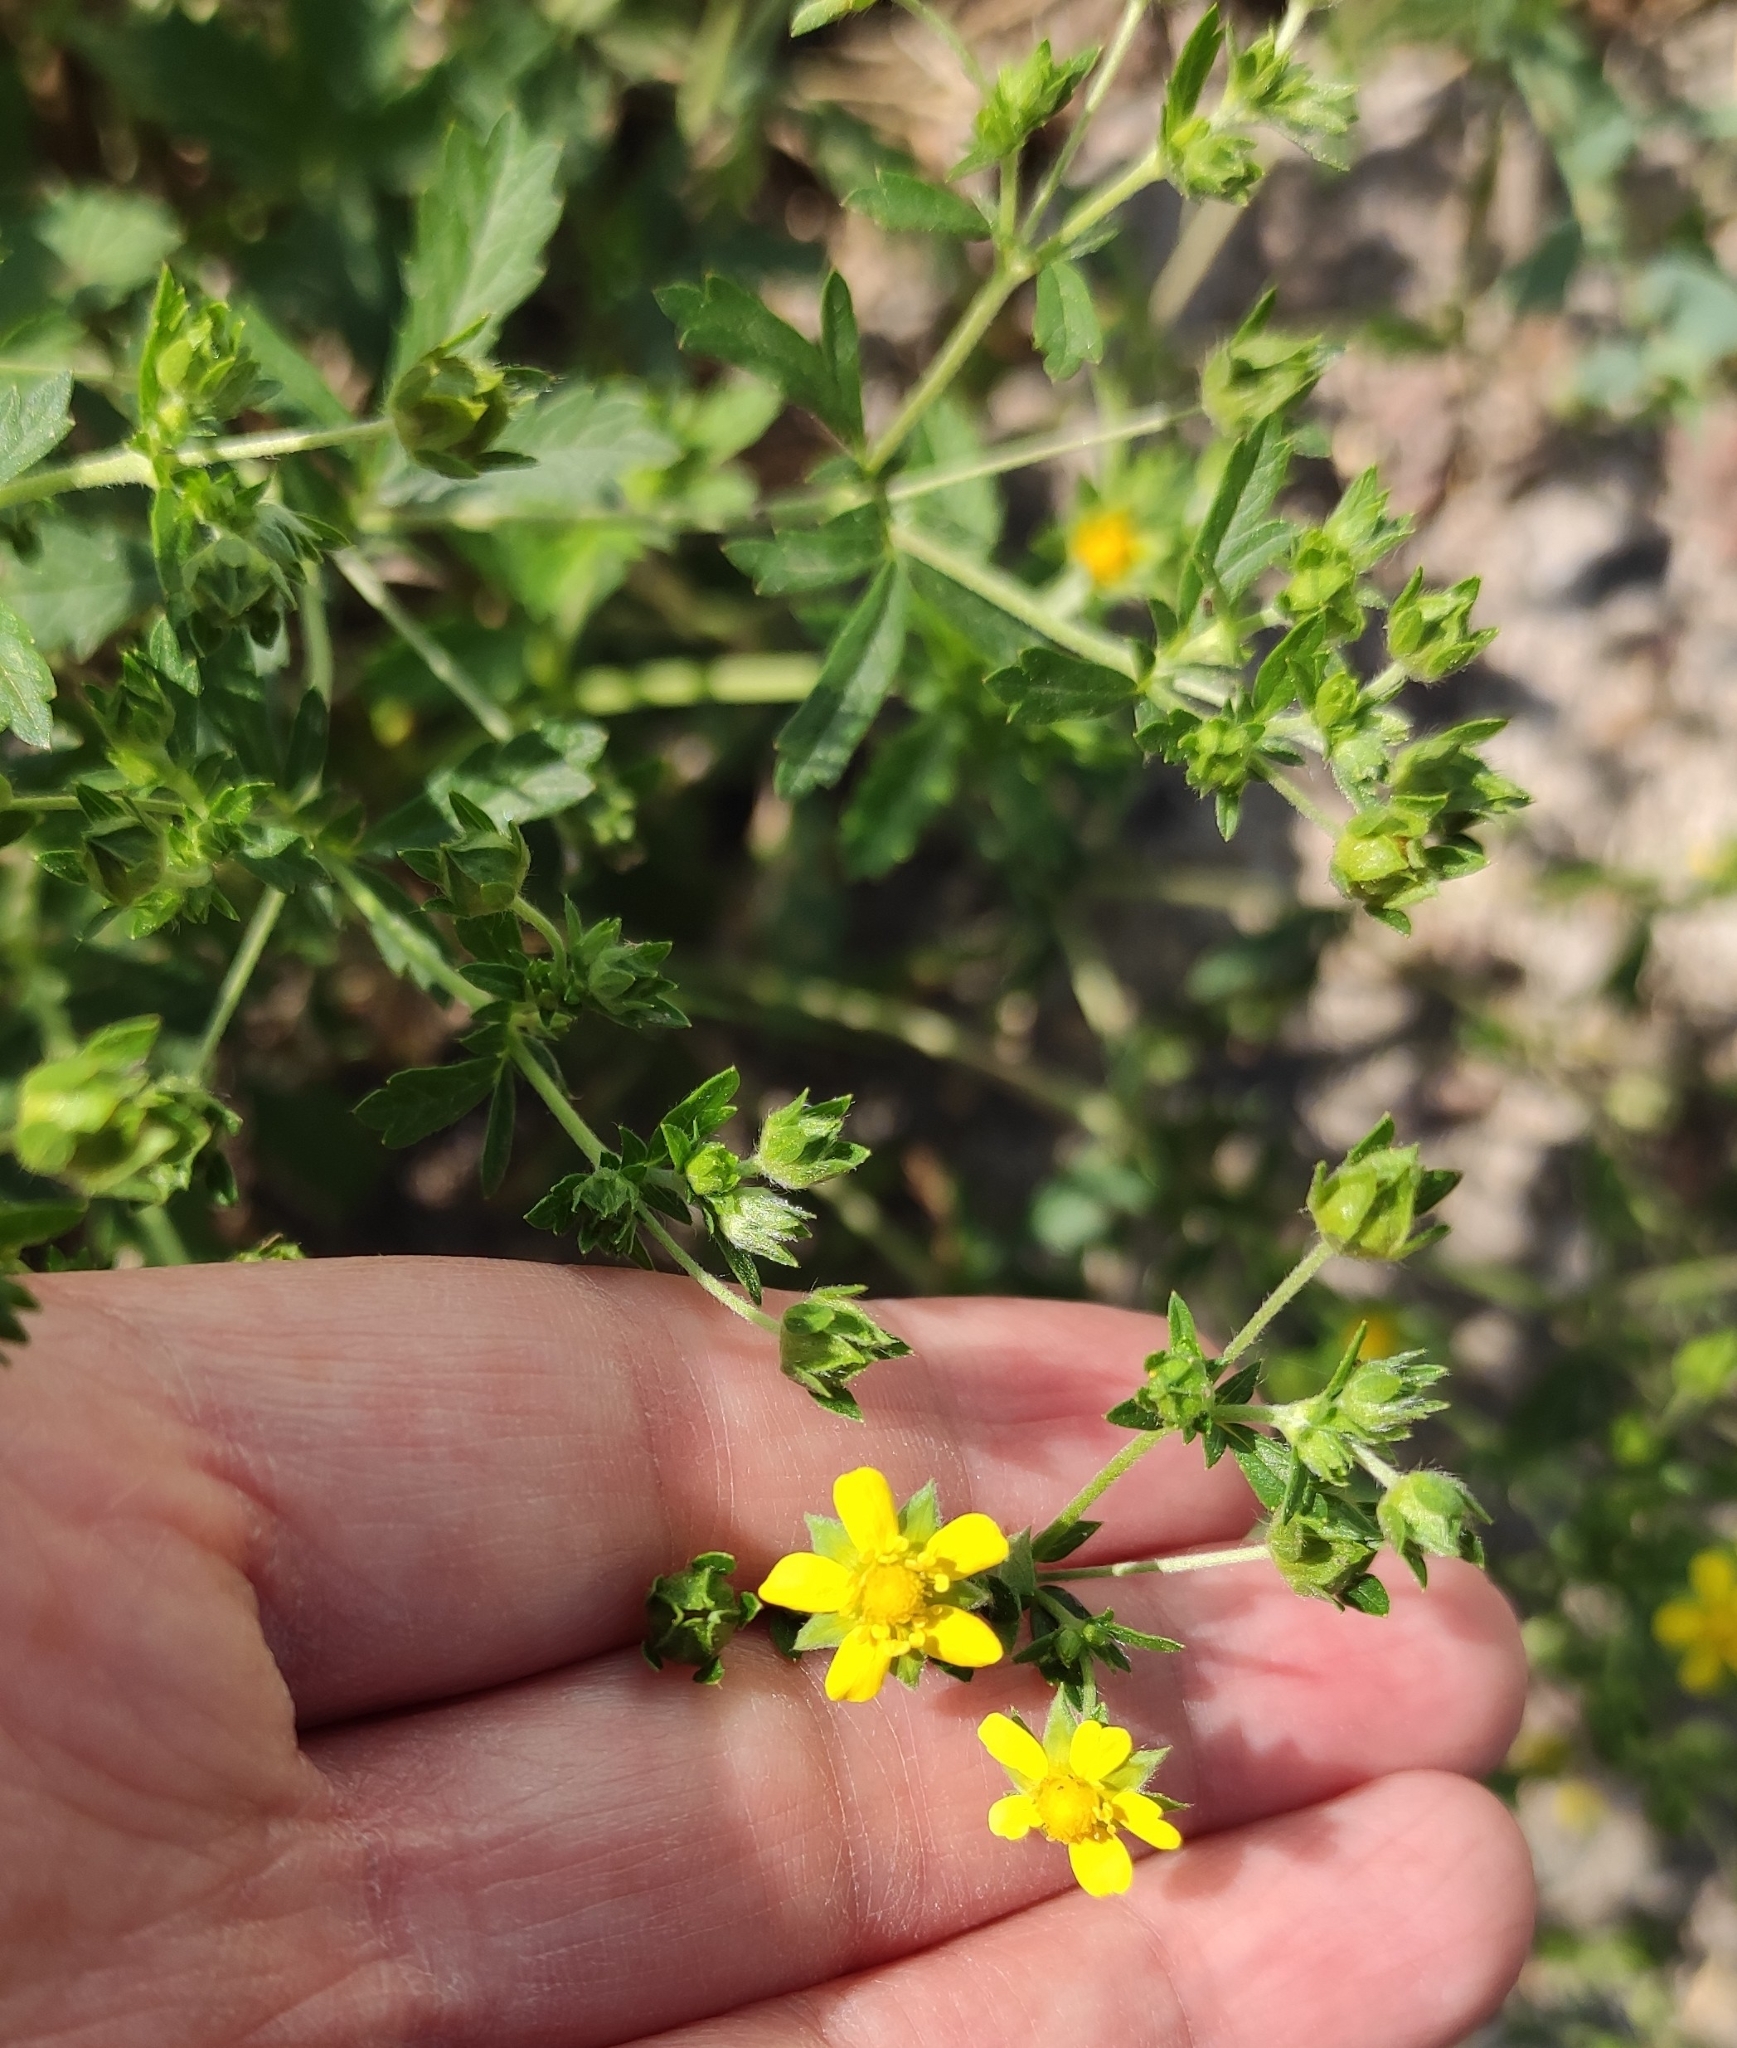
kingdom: Plantae
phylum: Tracheophyta
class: Magnoliopsida
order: Rosales
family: Rosaceae
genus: Potentilla
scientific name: Potentilla intermedia
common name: Downy cinquefoil
